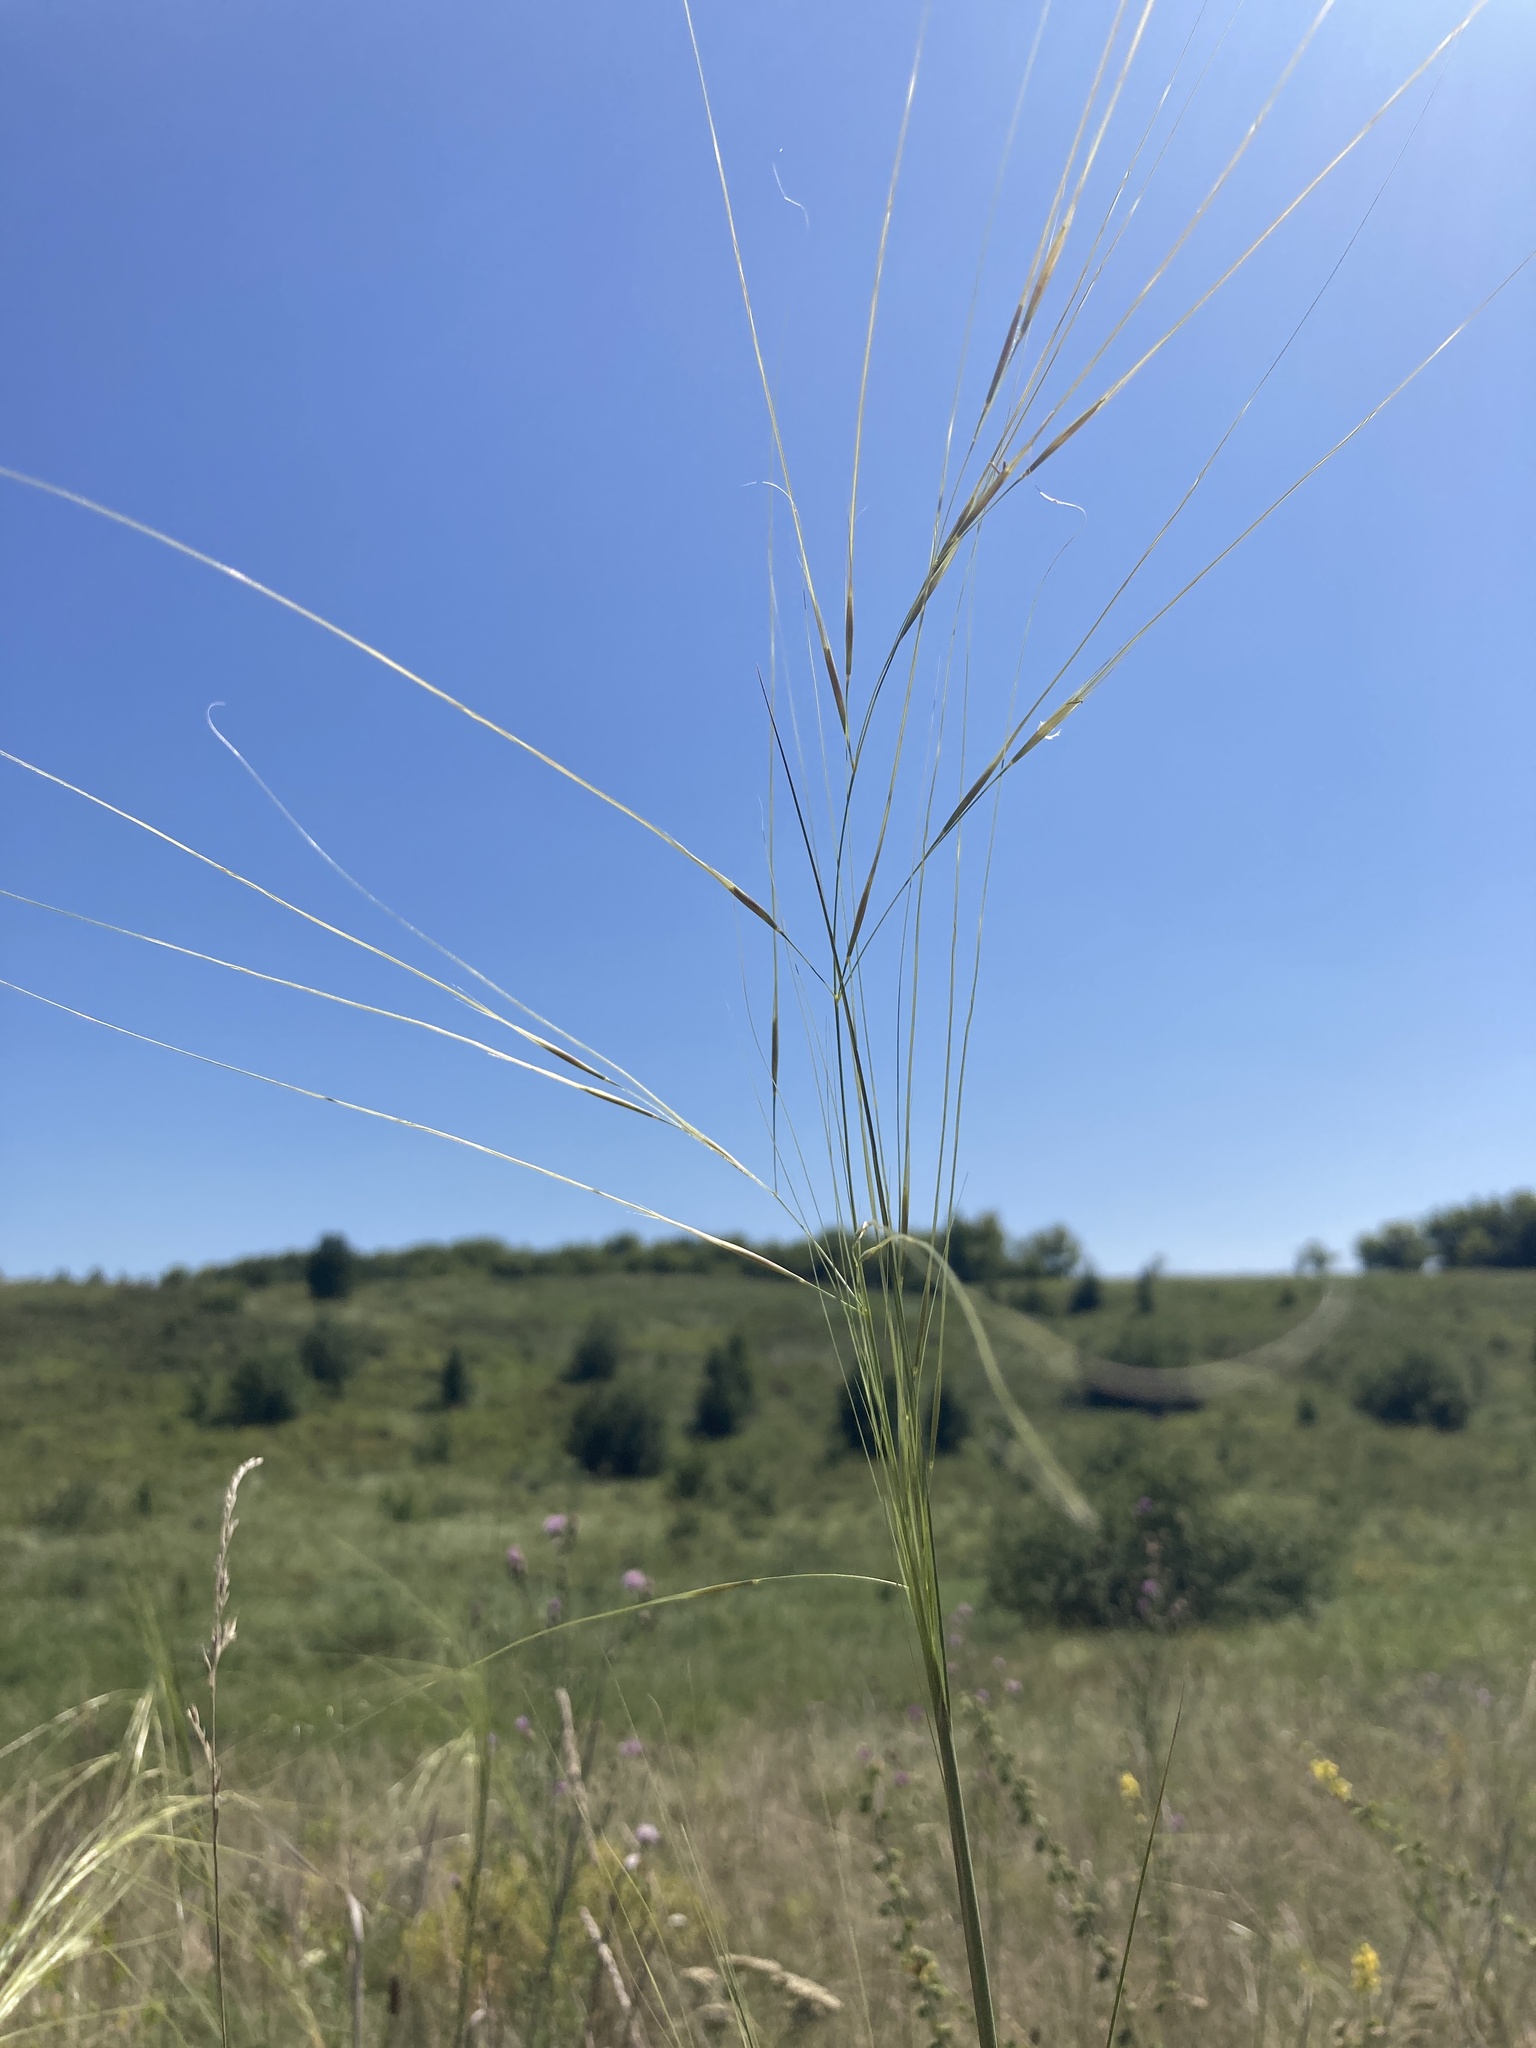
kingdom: Plantae
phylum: Tracheophyta
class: Liliopsida
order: Poales
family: Poaceae
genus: Stipa
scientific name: Stipa capillata
